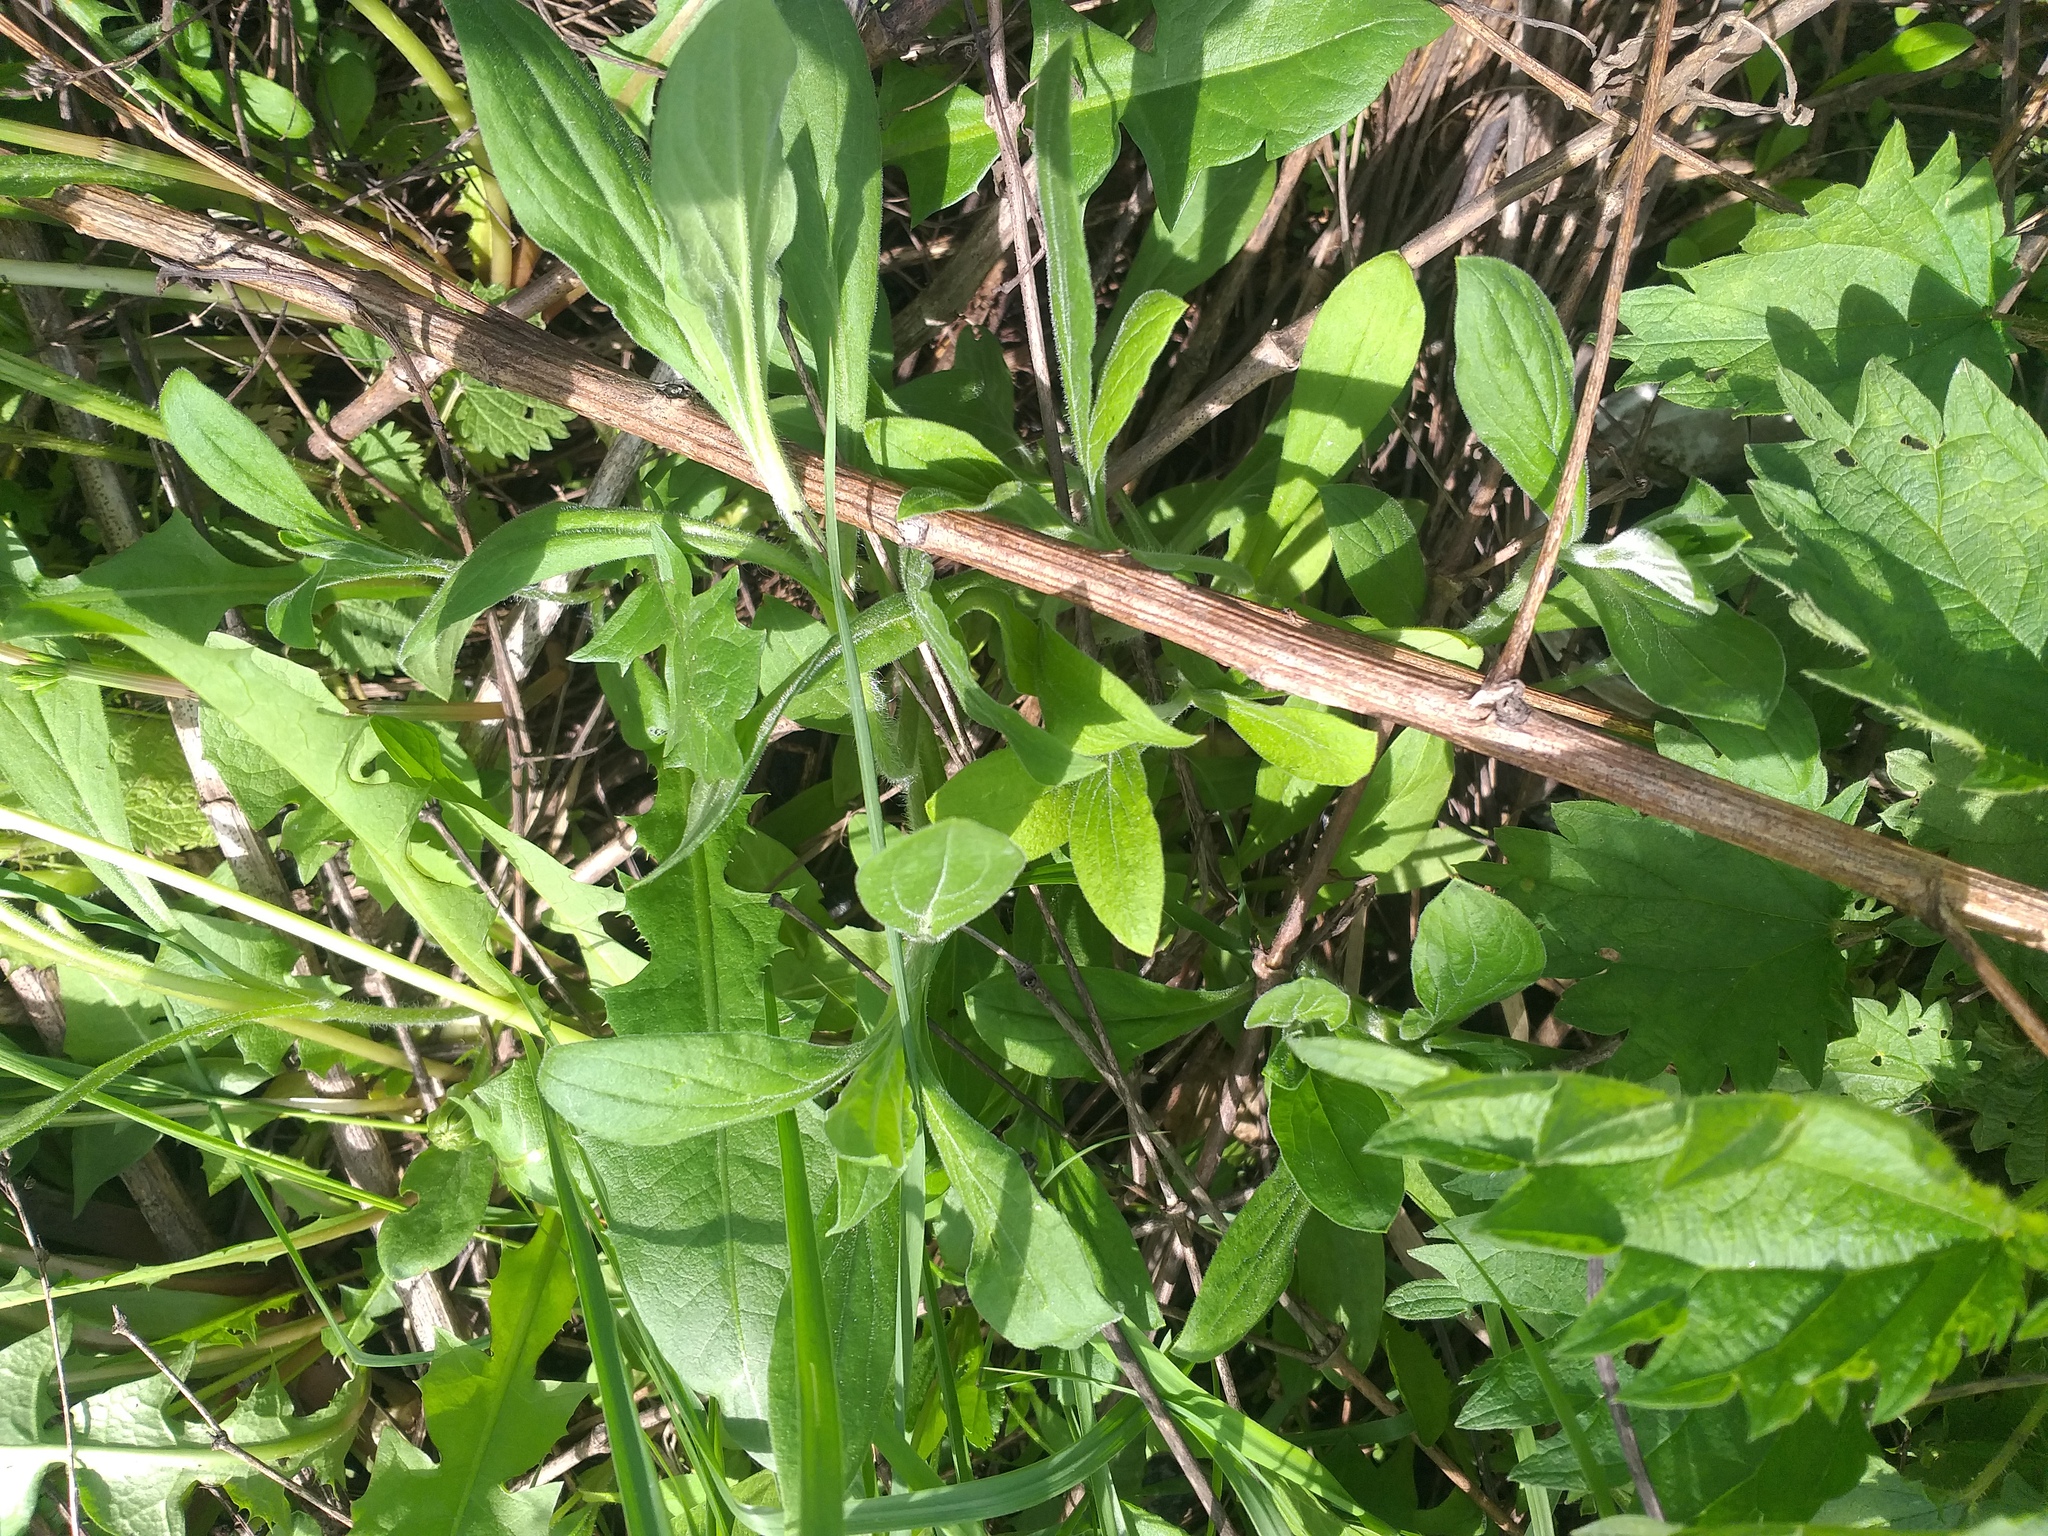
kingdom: Plantae
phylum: Tracheophyta
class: Magnoliopsida
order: Caryophyllales
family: Caryophyllaceae
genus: Silene
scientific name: Silene latifolia
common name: White campion
